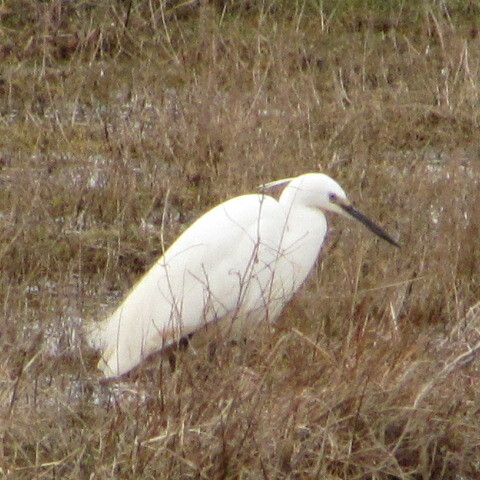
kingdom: Animalia
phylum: Chordata
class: Aves
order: Pelecaniformes
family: Ardeidae
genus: Egretta
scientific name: Egretta garzetta
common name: Little egret
